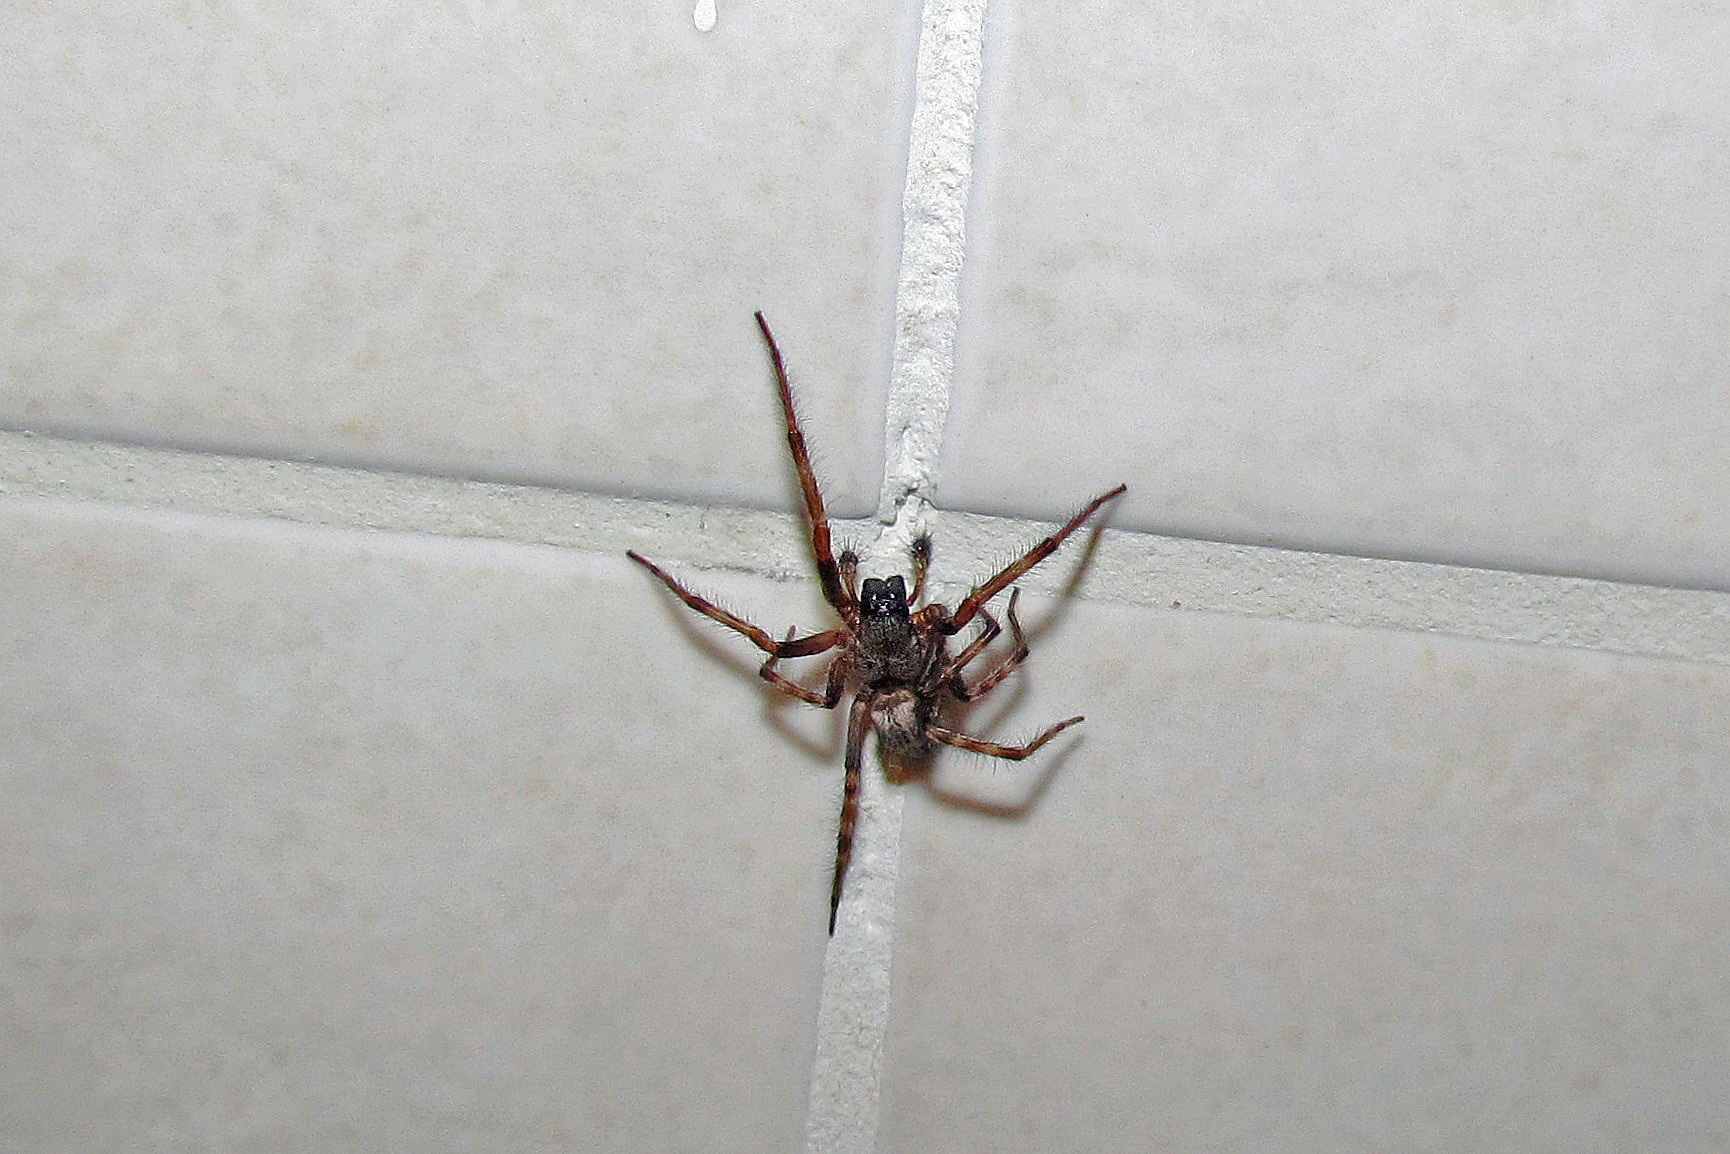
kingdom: Animalia
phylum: Arthropoda
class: Arachnida
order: Araneae
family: Desidae
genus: Badumna
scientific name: Badumna longinqua
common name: Gray house spider
